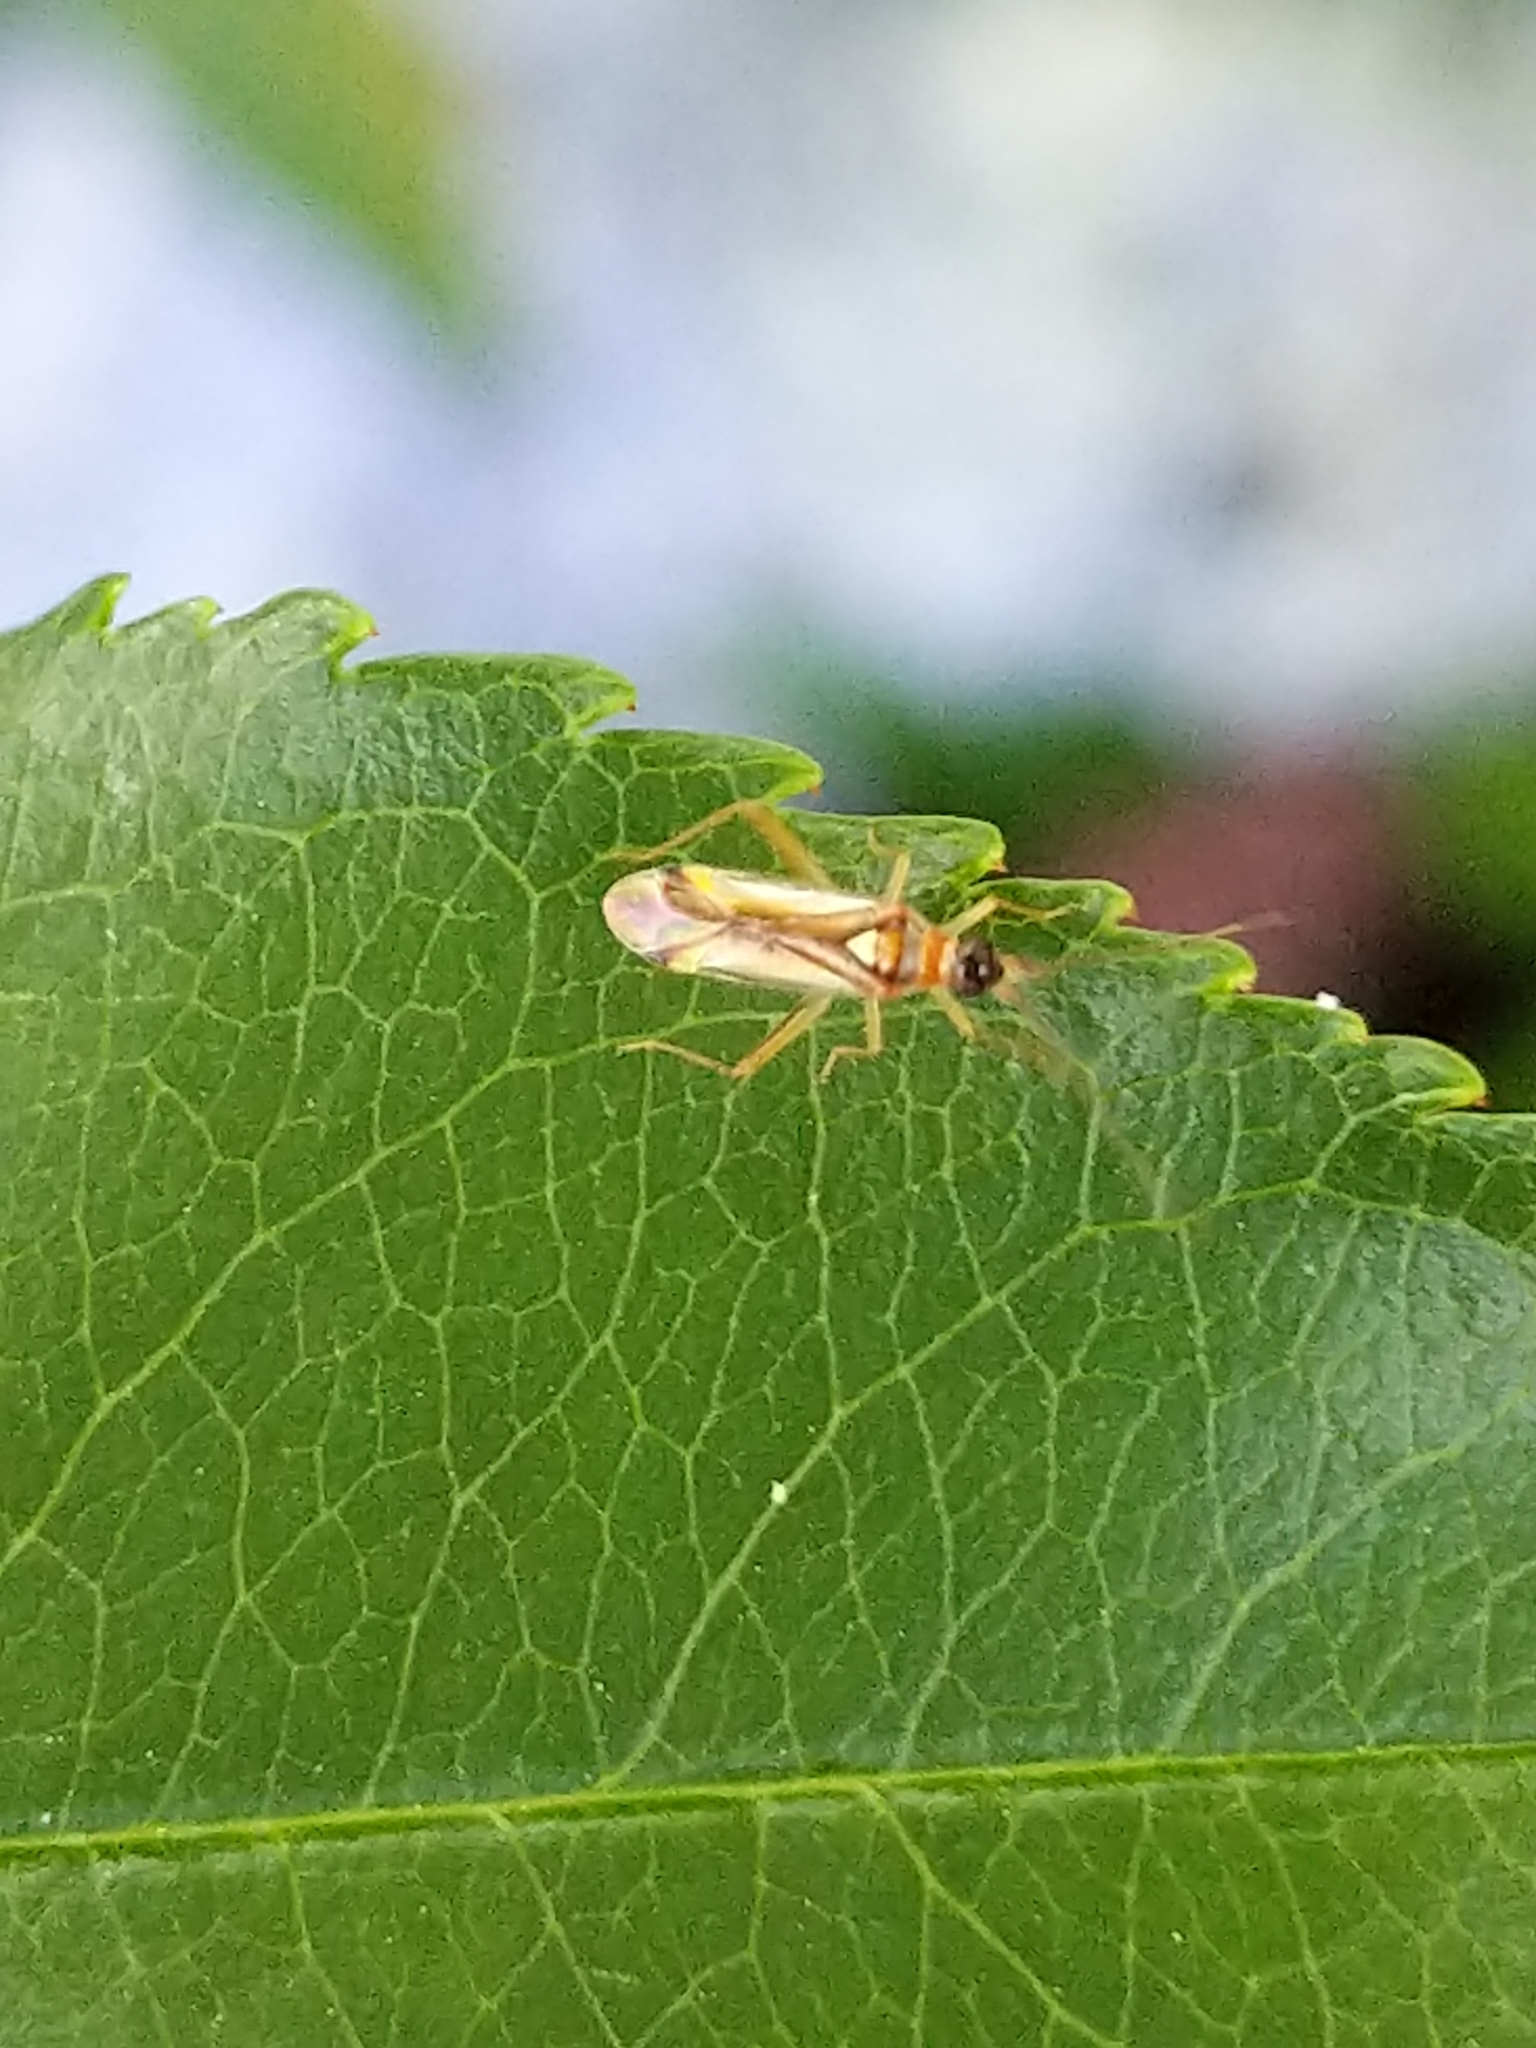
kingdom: Animalia
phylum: Arthropoda
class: Insecta
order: Hemiptera
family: Miridae
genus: Campyloneura
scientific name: Campyloneura virgula
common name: Predatory bug
